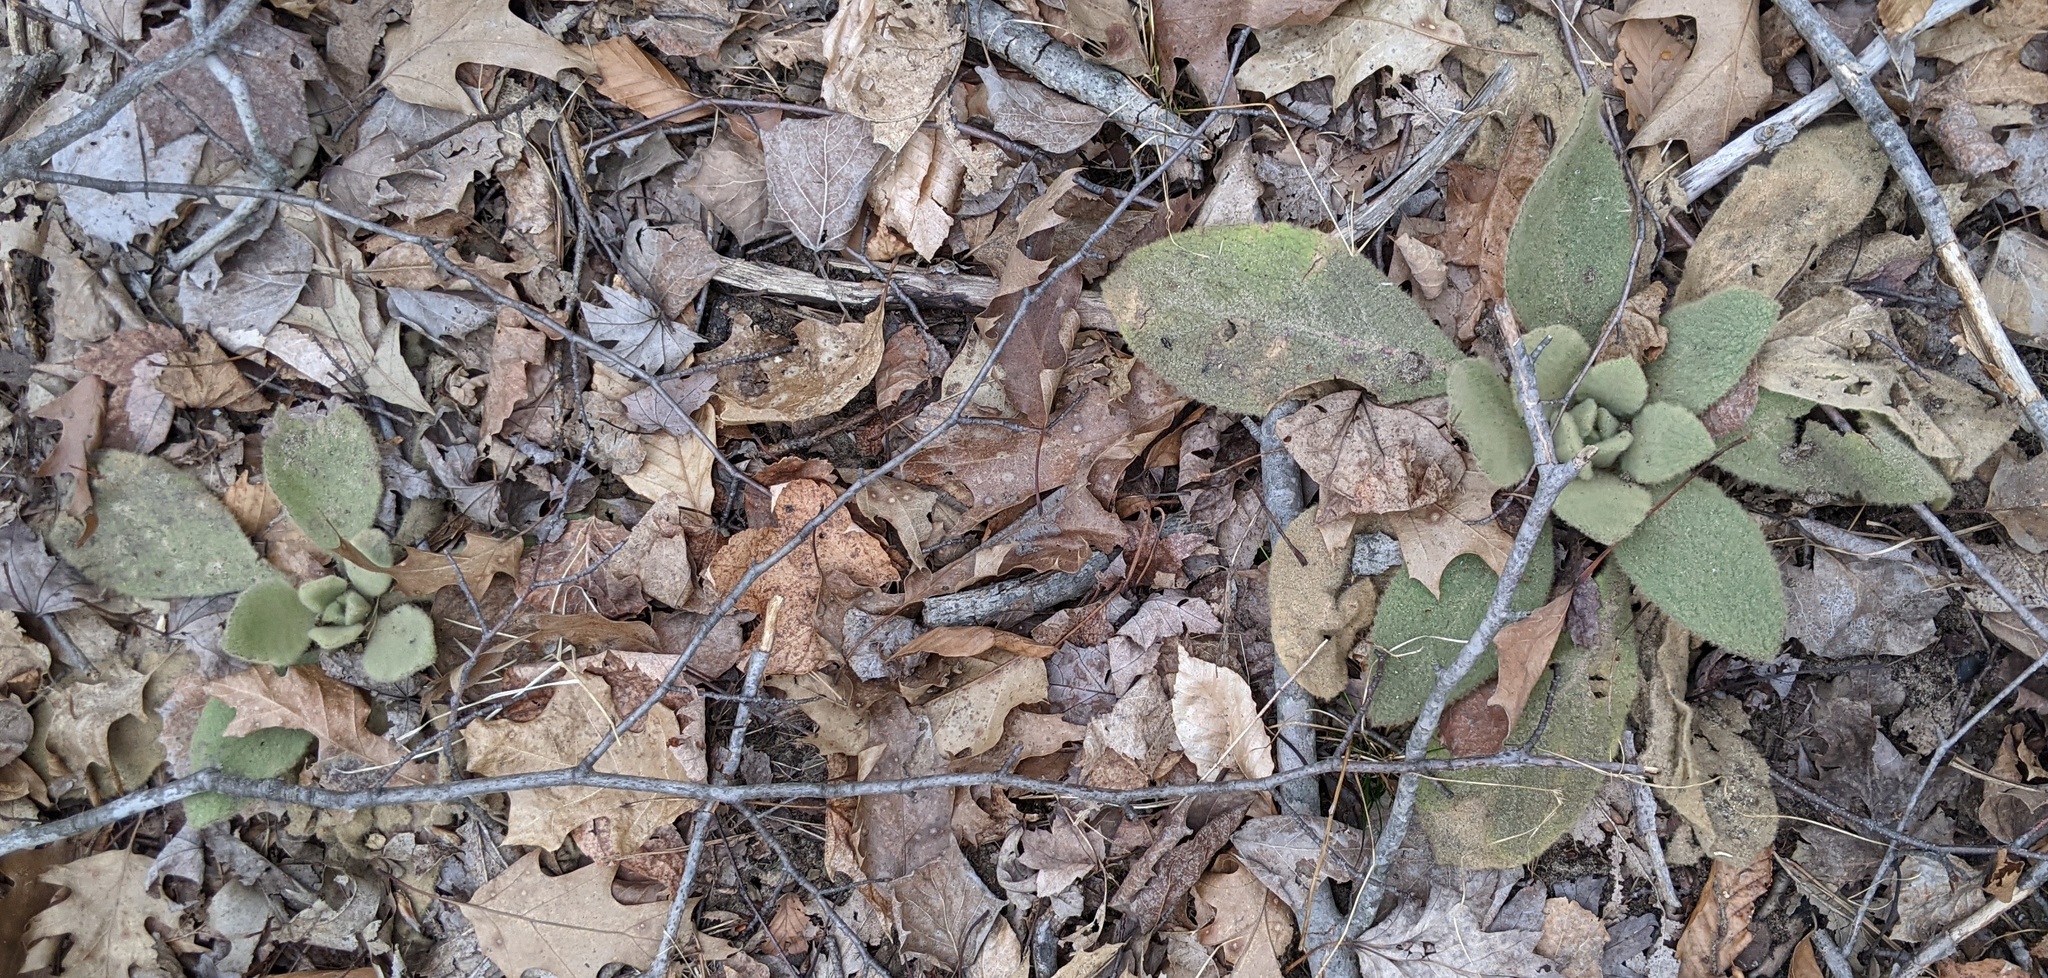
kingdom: Plantae
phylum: Tracheophyta
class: Magnoliopsida
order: Lamiales
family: Scrophulariaceae
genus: Verbascum
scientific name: Verbascum thapsus
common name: Common mullein
